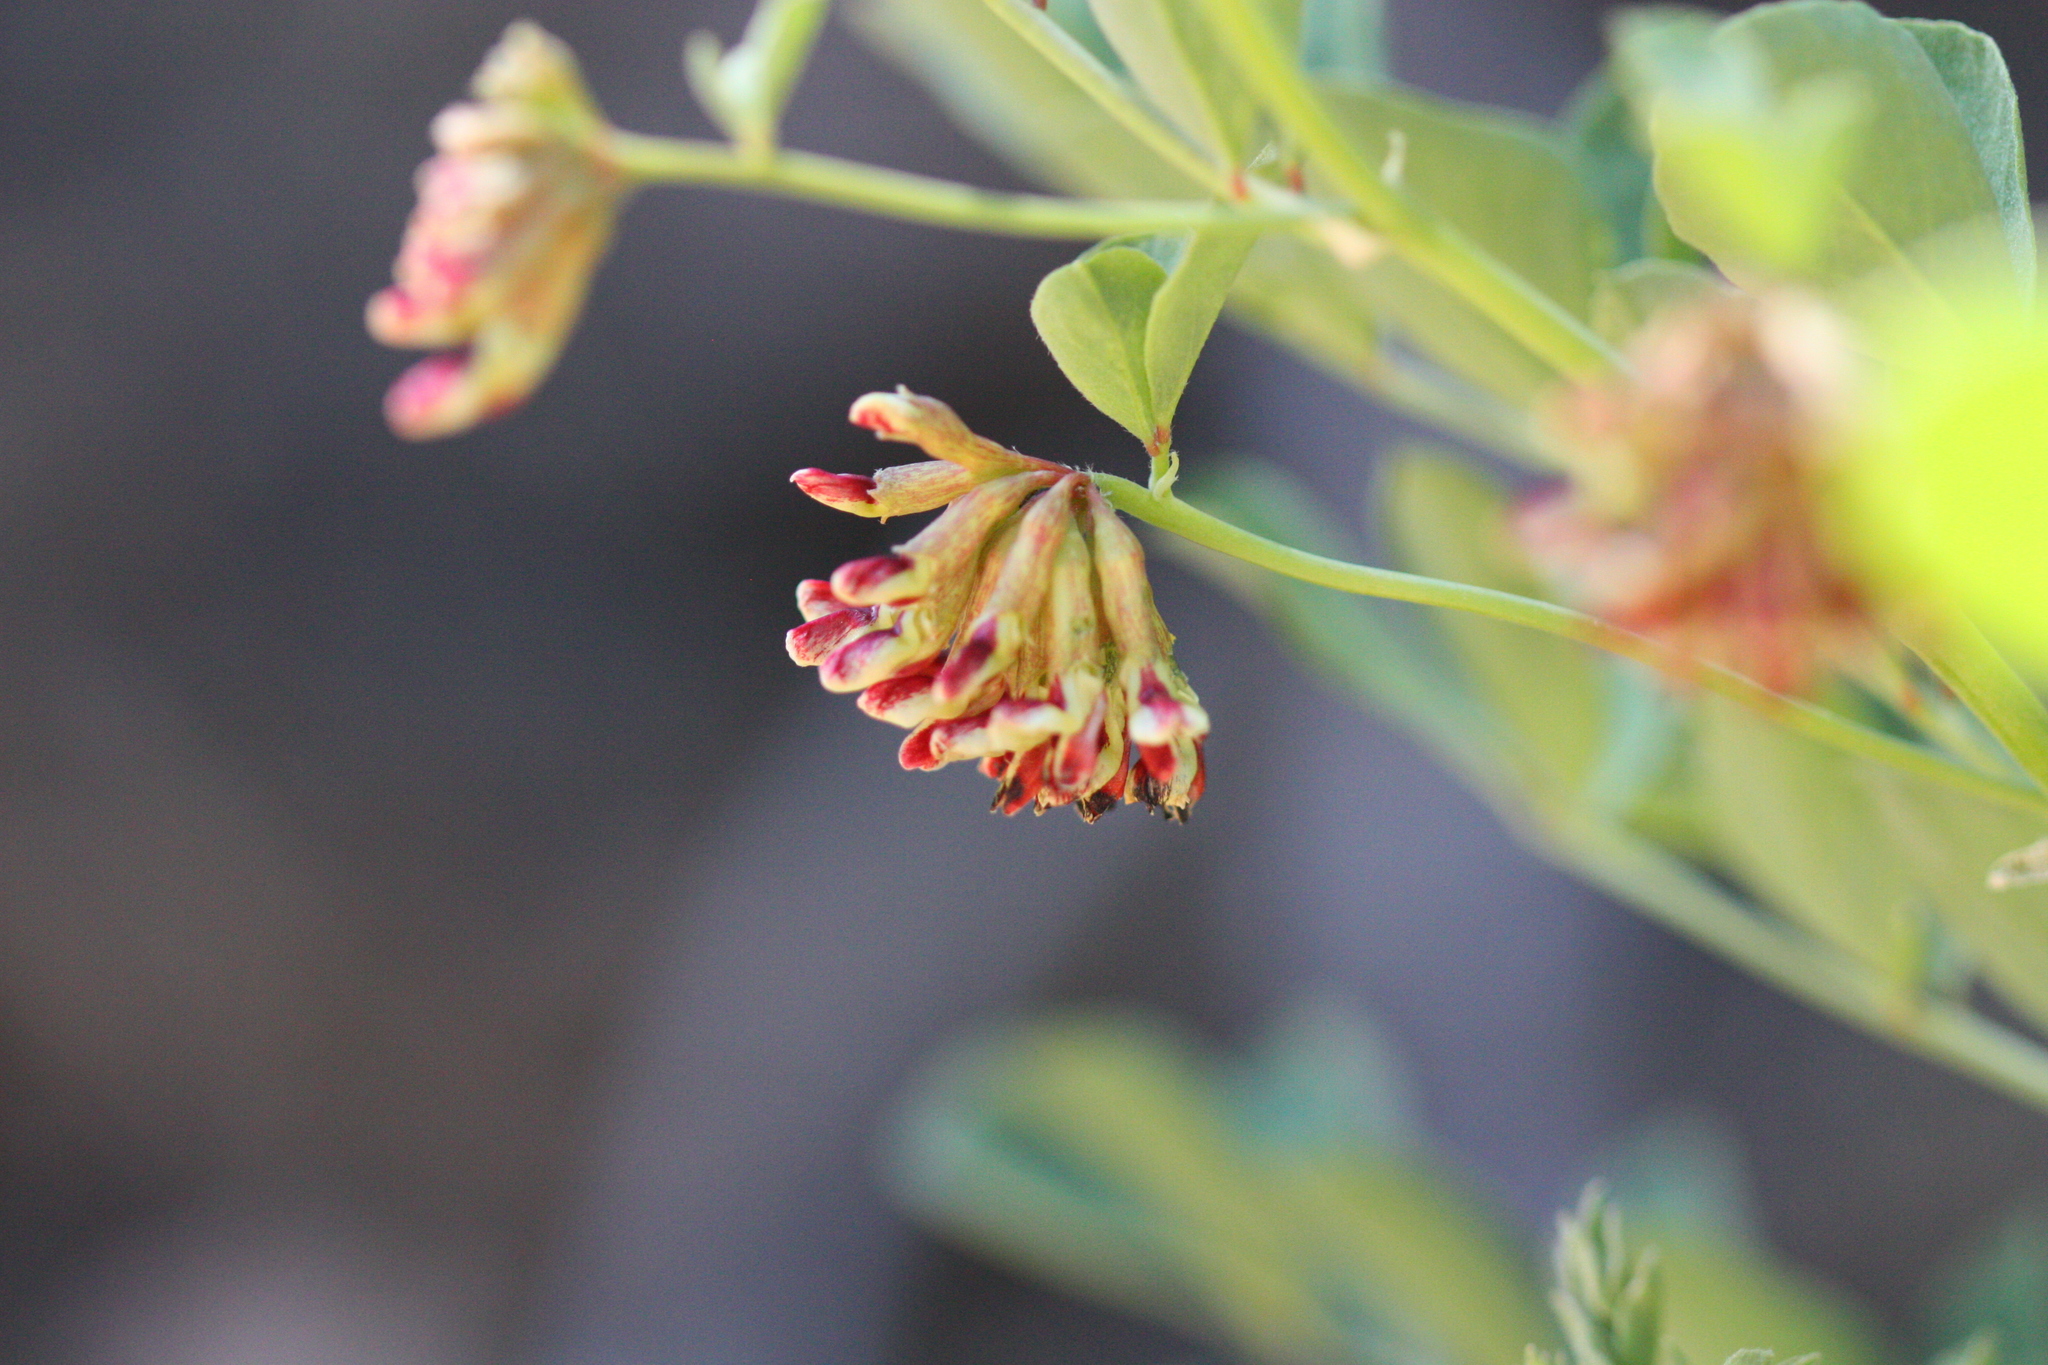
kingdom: Plantae
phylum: Tracheophyta
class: Magnoliopsida
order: Fabales
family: Fabaceae
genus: Hosackia
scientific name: Hosackia crassifolia
